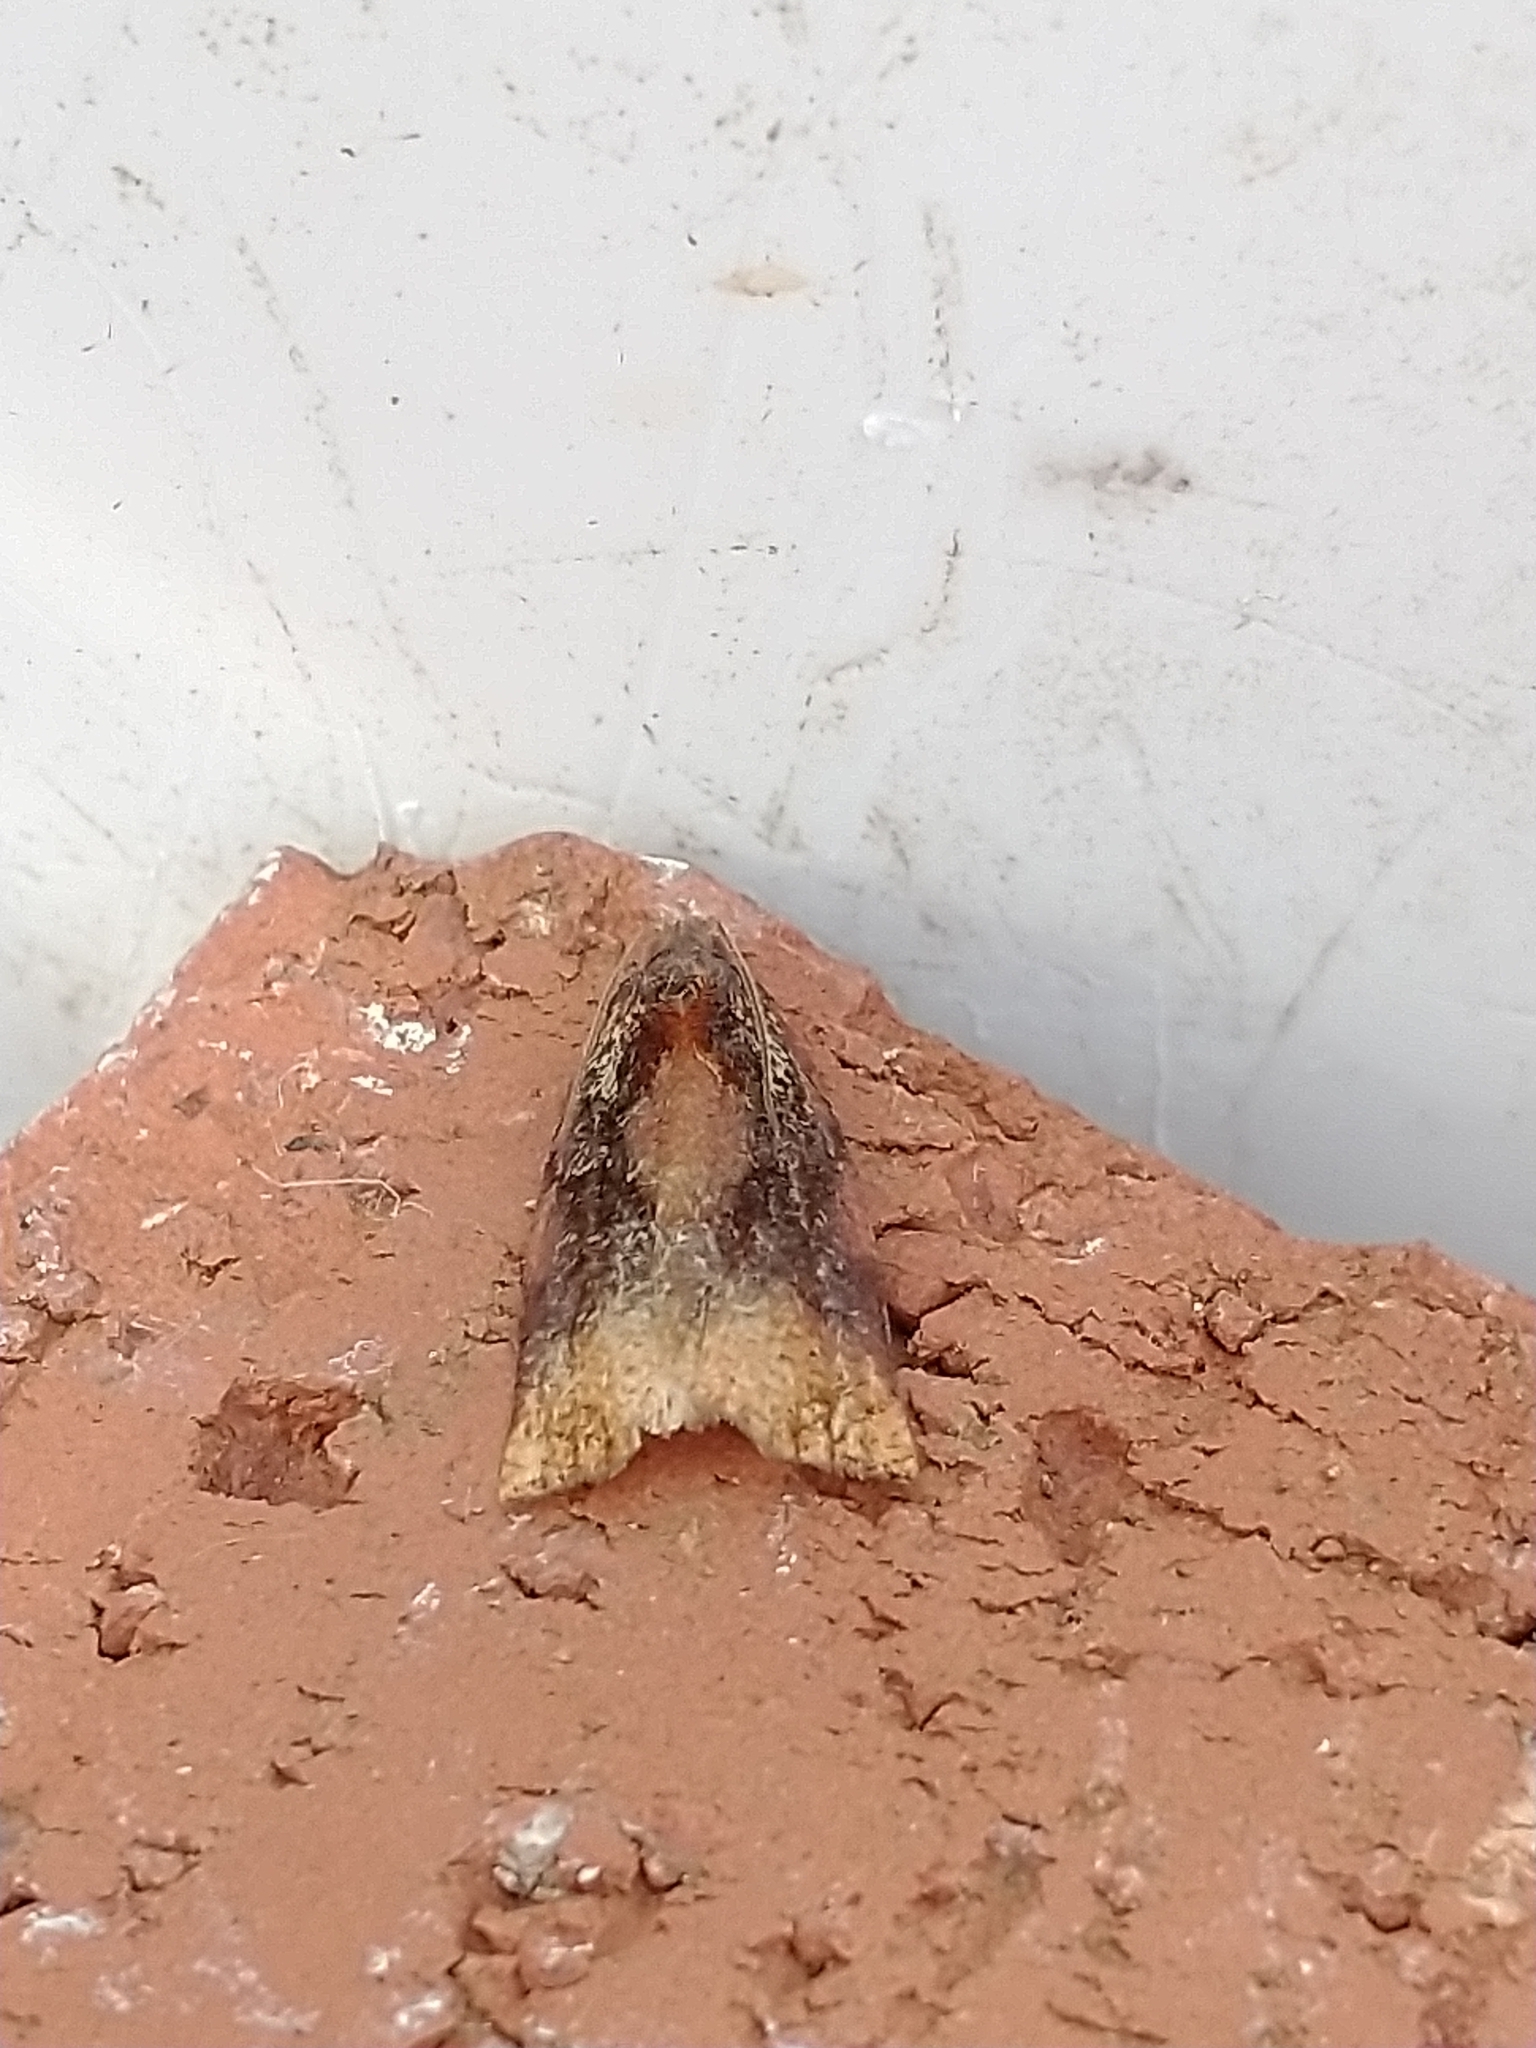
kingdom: Animalia
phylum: Arthropoda
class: Insecta
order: Lepidoptera
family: Tortricidae
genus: Archips
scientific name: Archips podana
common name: Large fruit-tree tortrix
